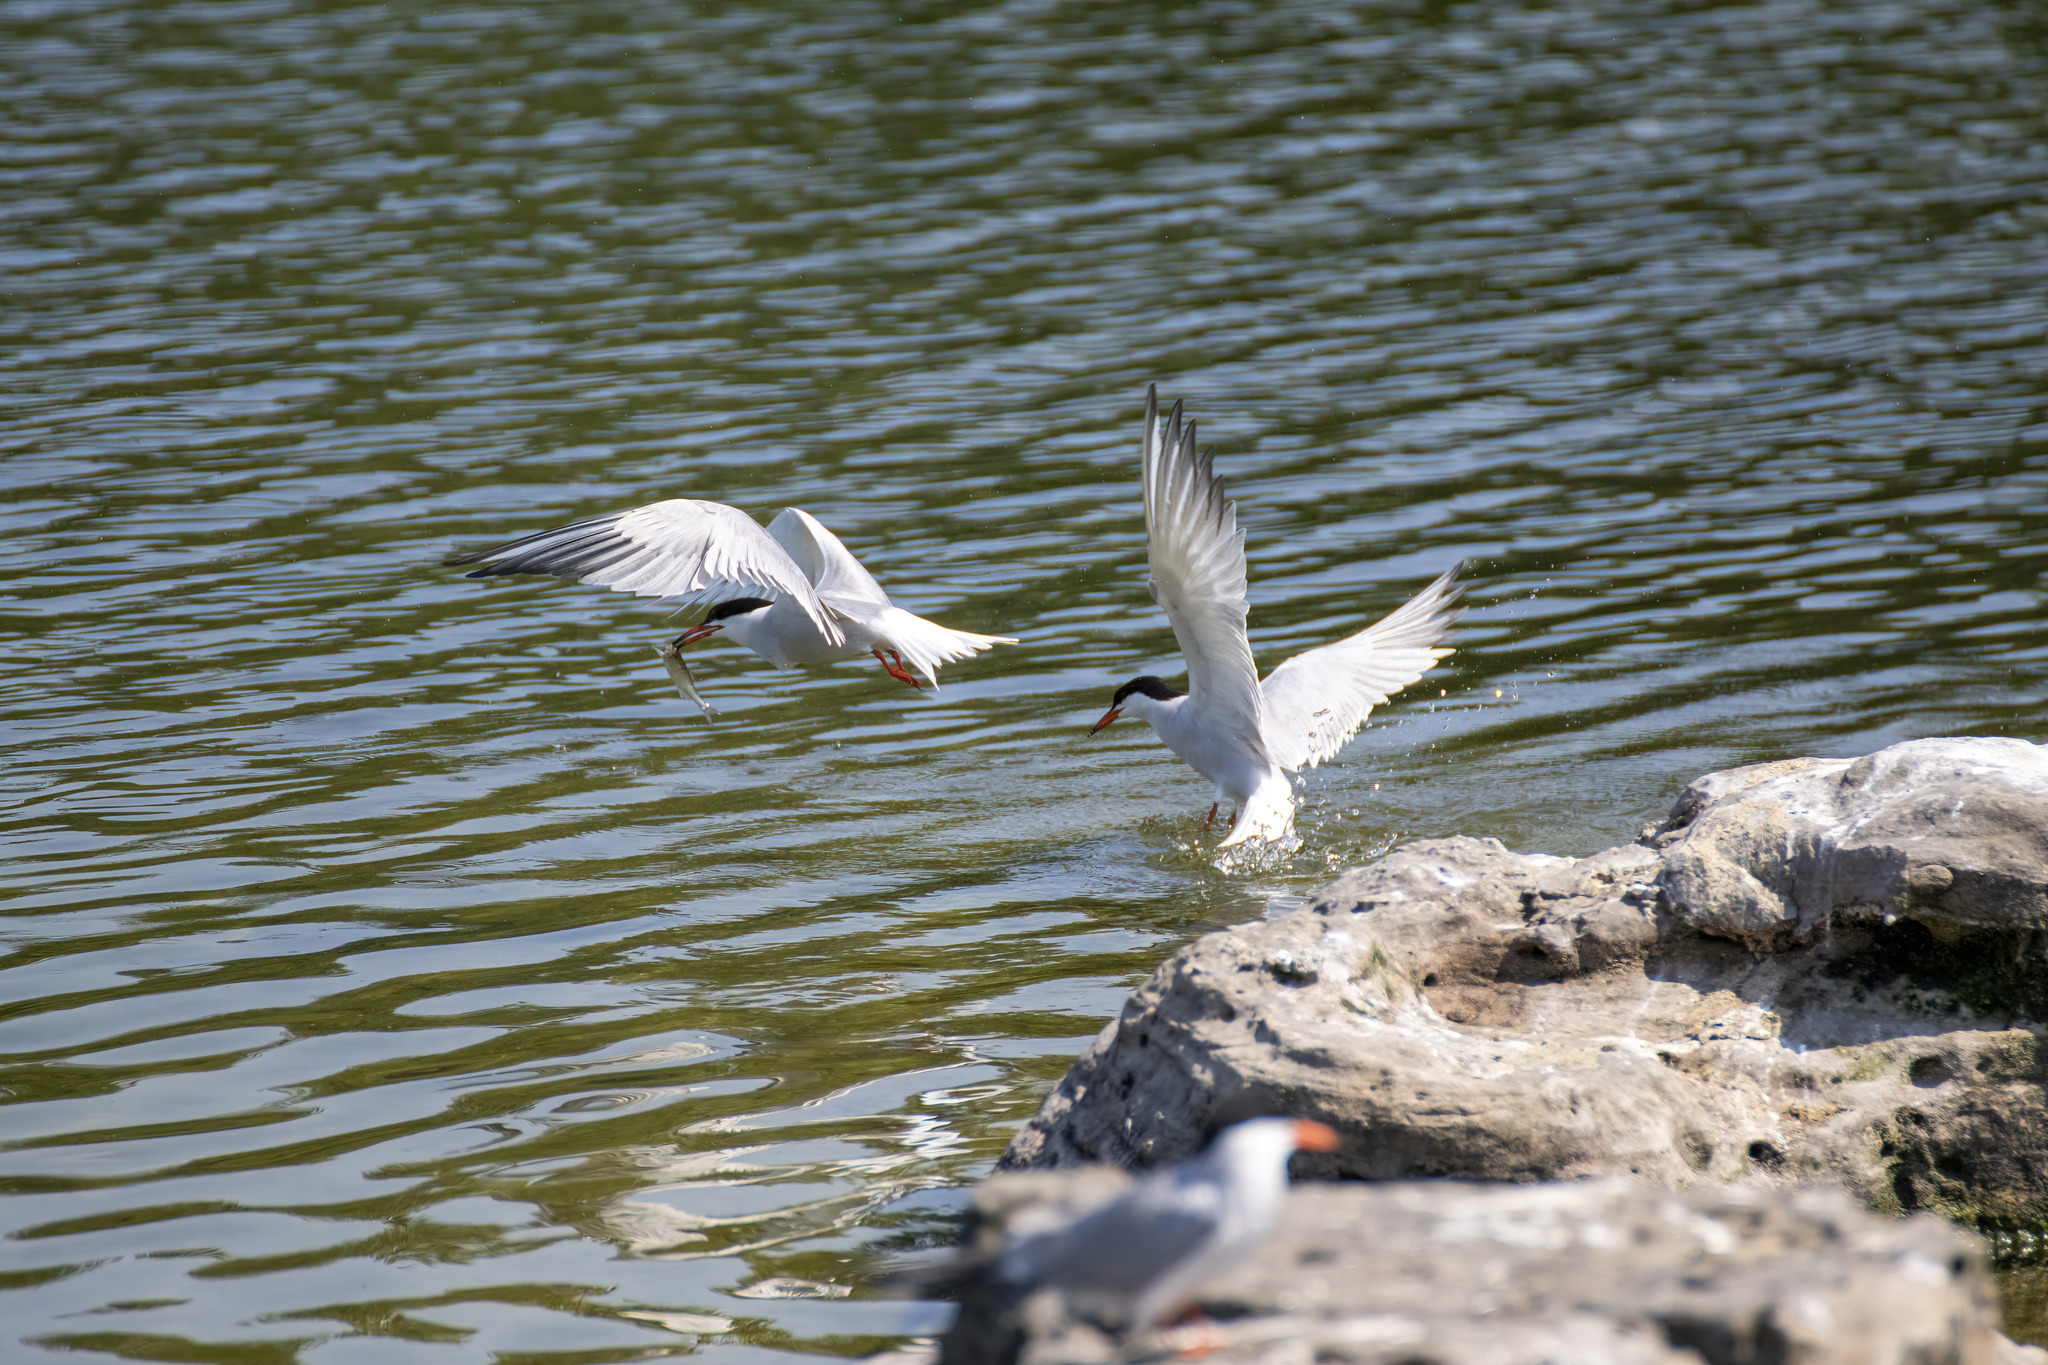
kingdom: Animalia
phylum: Chordata
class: Aves
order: Charadriiformes
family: Laridae
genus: Sterna
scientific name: Sterna hirundo
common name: Common tern
